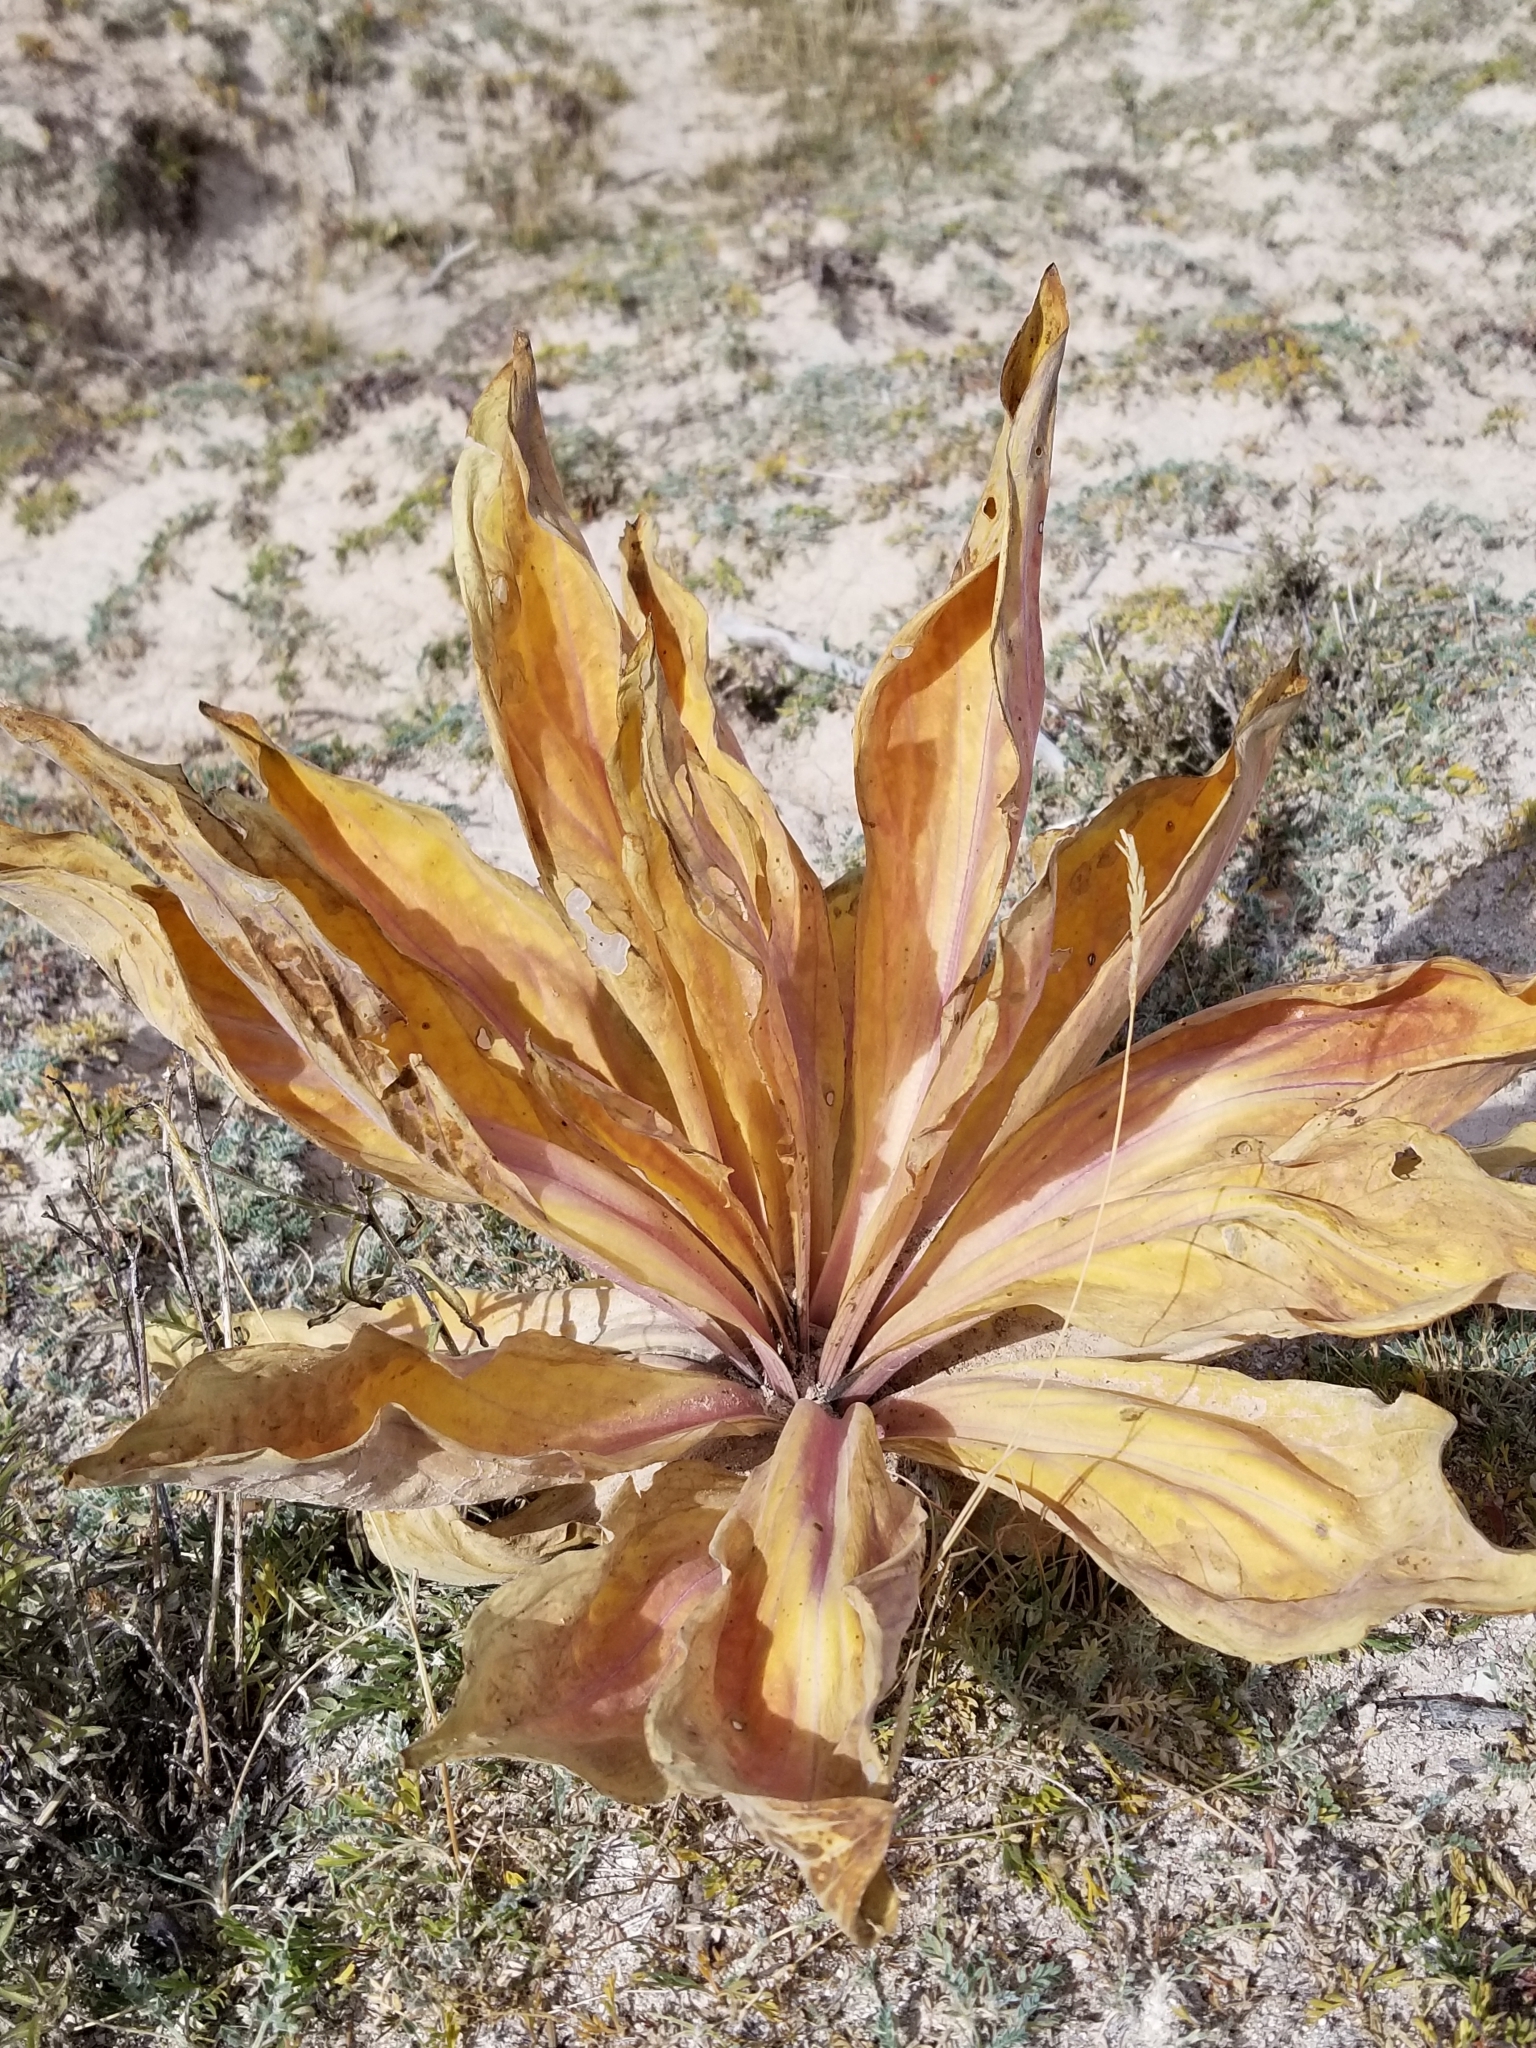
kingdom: Plantae
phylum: Tracheophyta
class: Magnoliopsida
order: Gentianales
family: Gentianaceae
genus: Frasera
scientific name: Frasera speciosa
